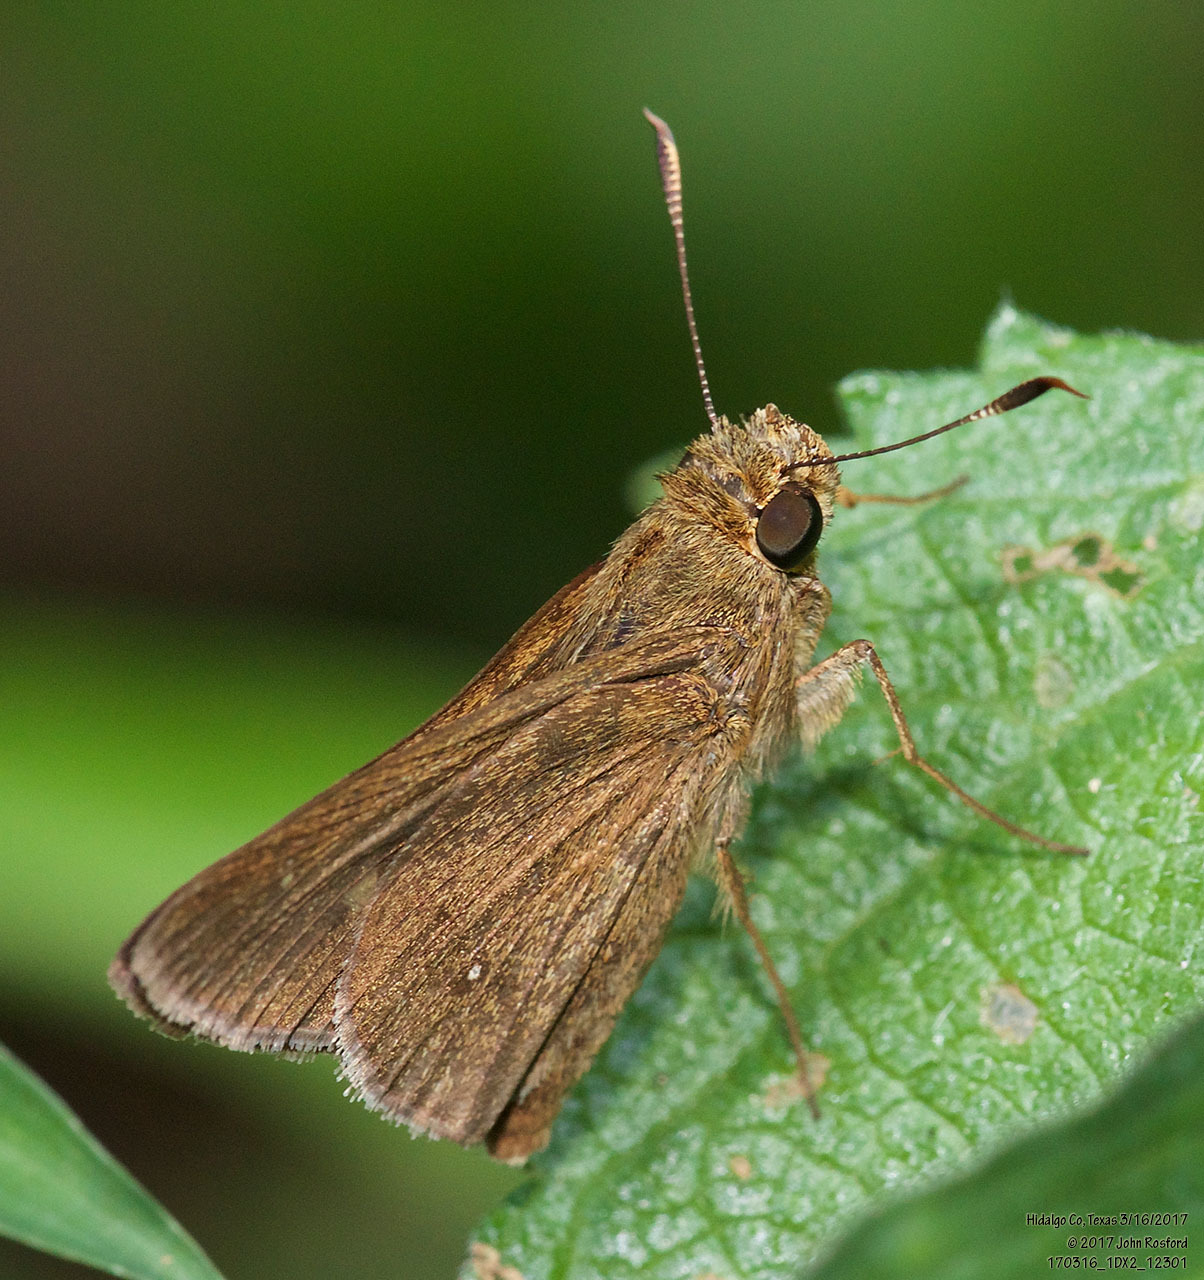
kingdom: Animalia
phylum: Arthropoda
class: Insecta
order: Lepidoptera
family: Hesperiidae
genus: Decinea
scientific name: Decinea percosius
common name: Double-dotted skipper
